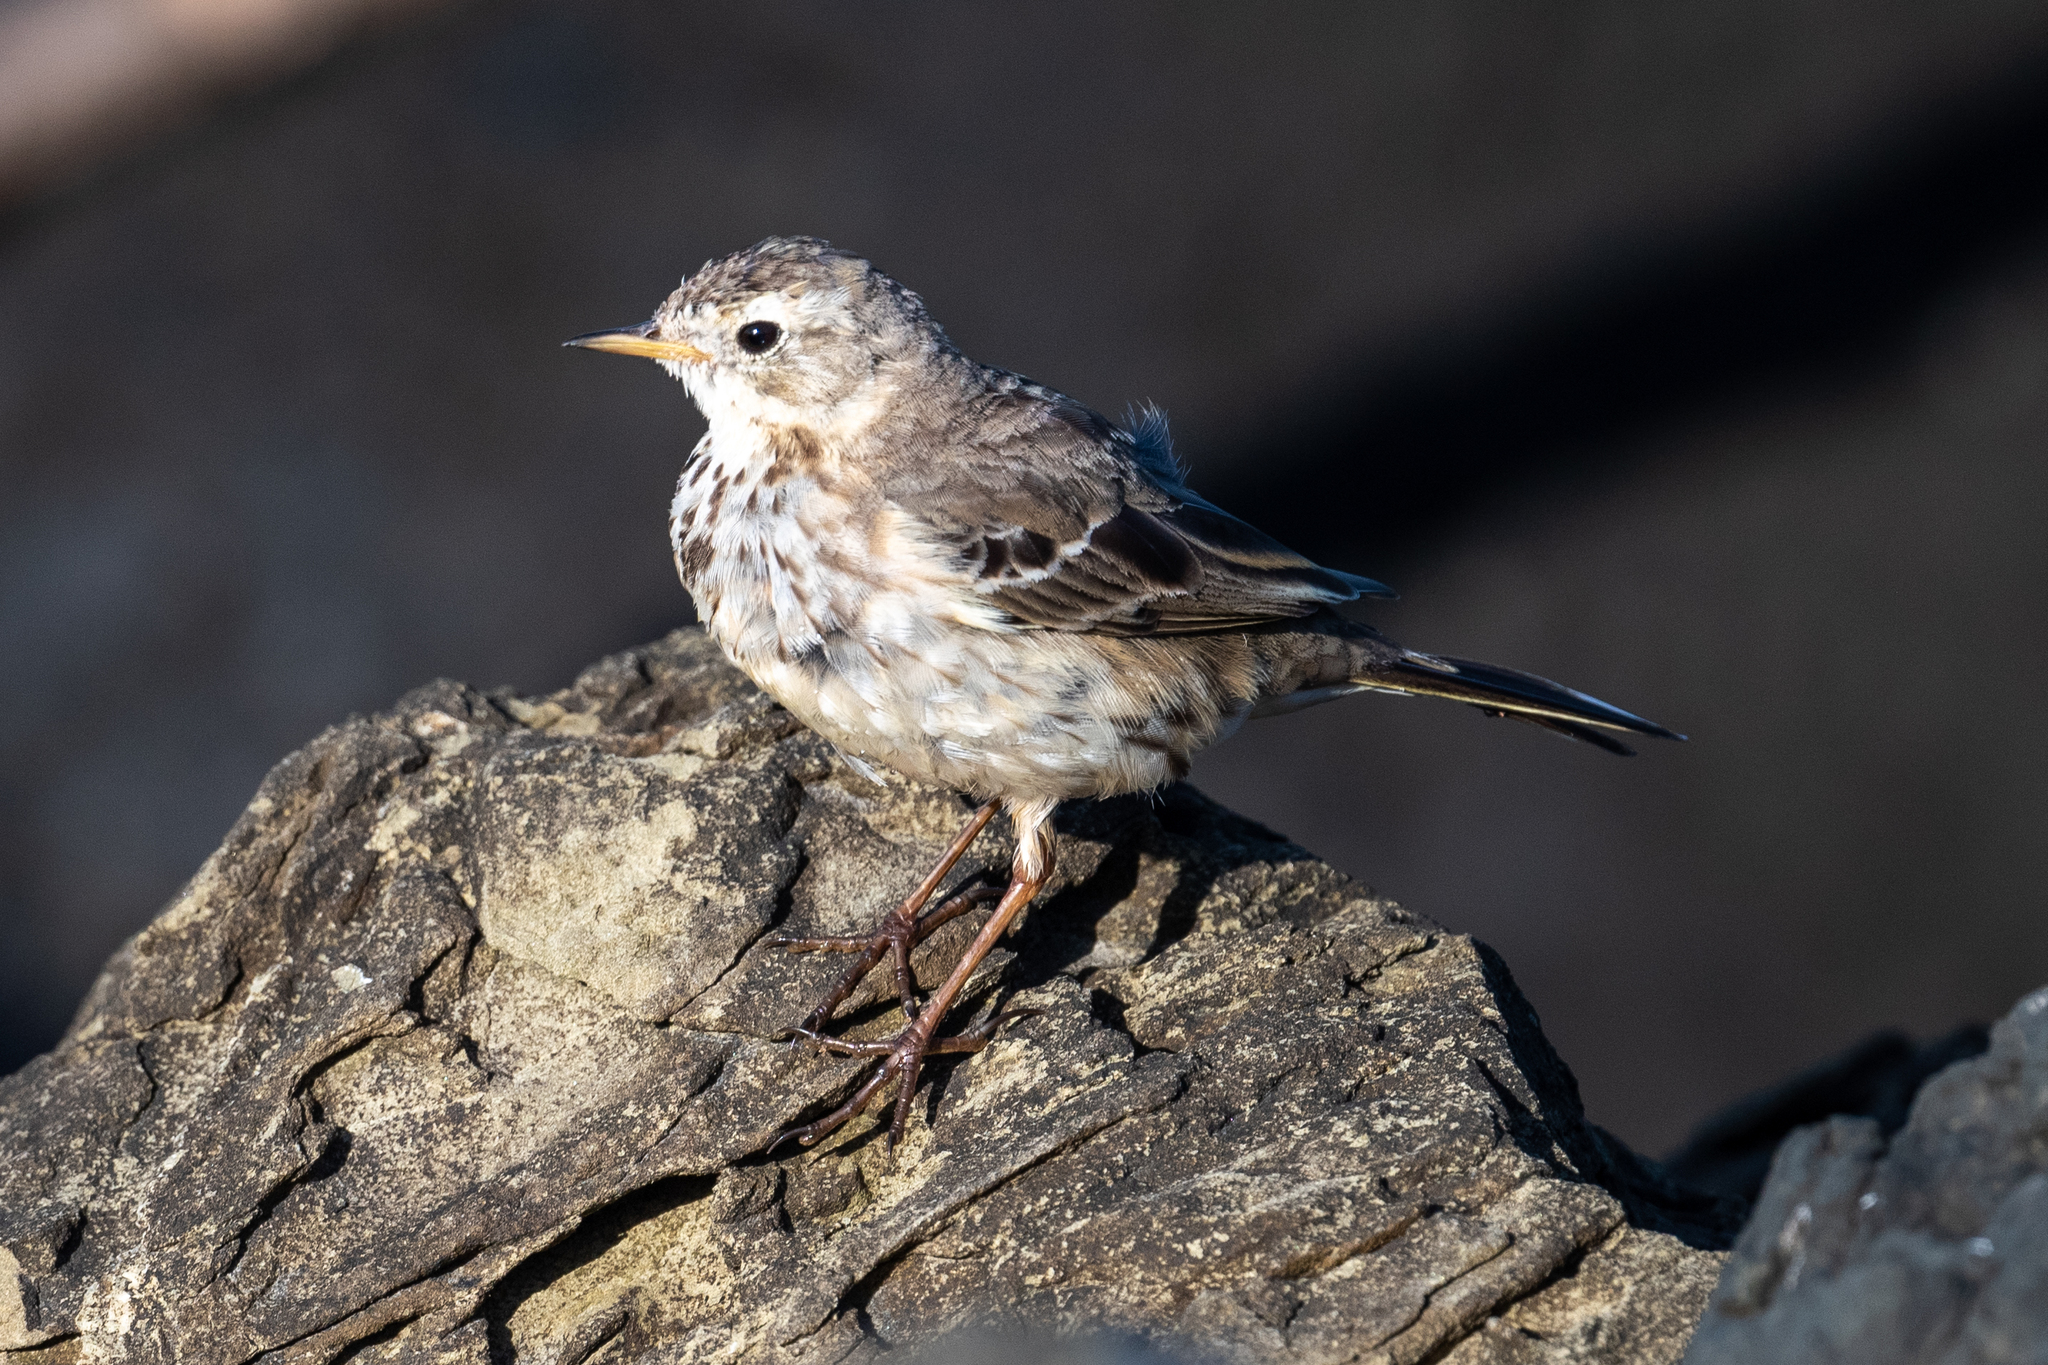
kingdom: Animalia
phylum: Chordata
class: Aves
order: Passeriformes
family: Motacillidae
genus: Anthus
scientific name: Anthus rubescens
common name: Buff-bellied pipit
